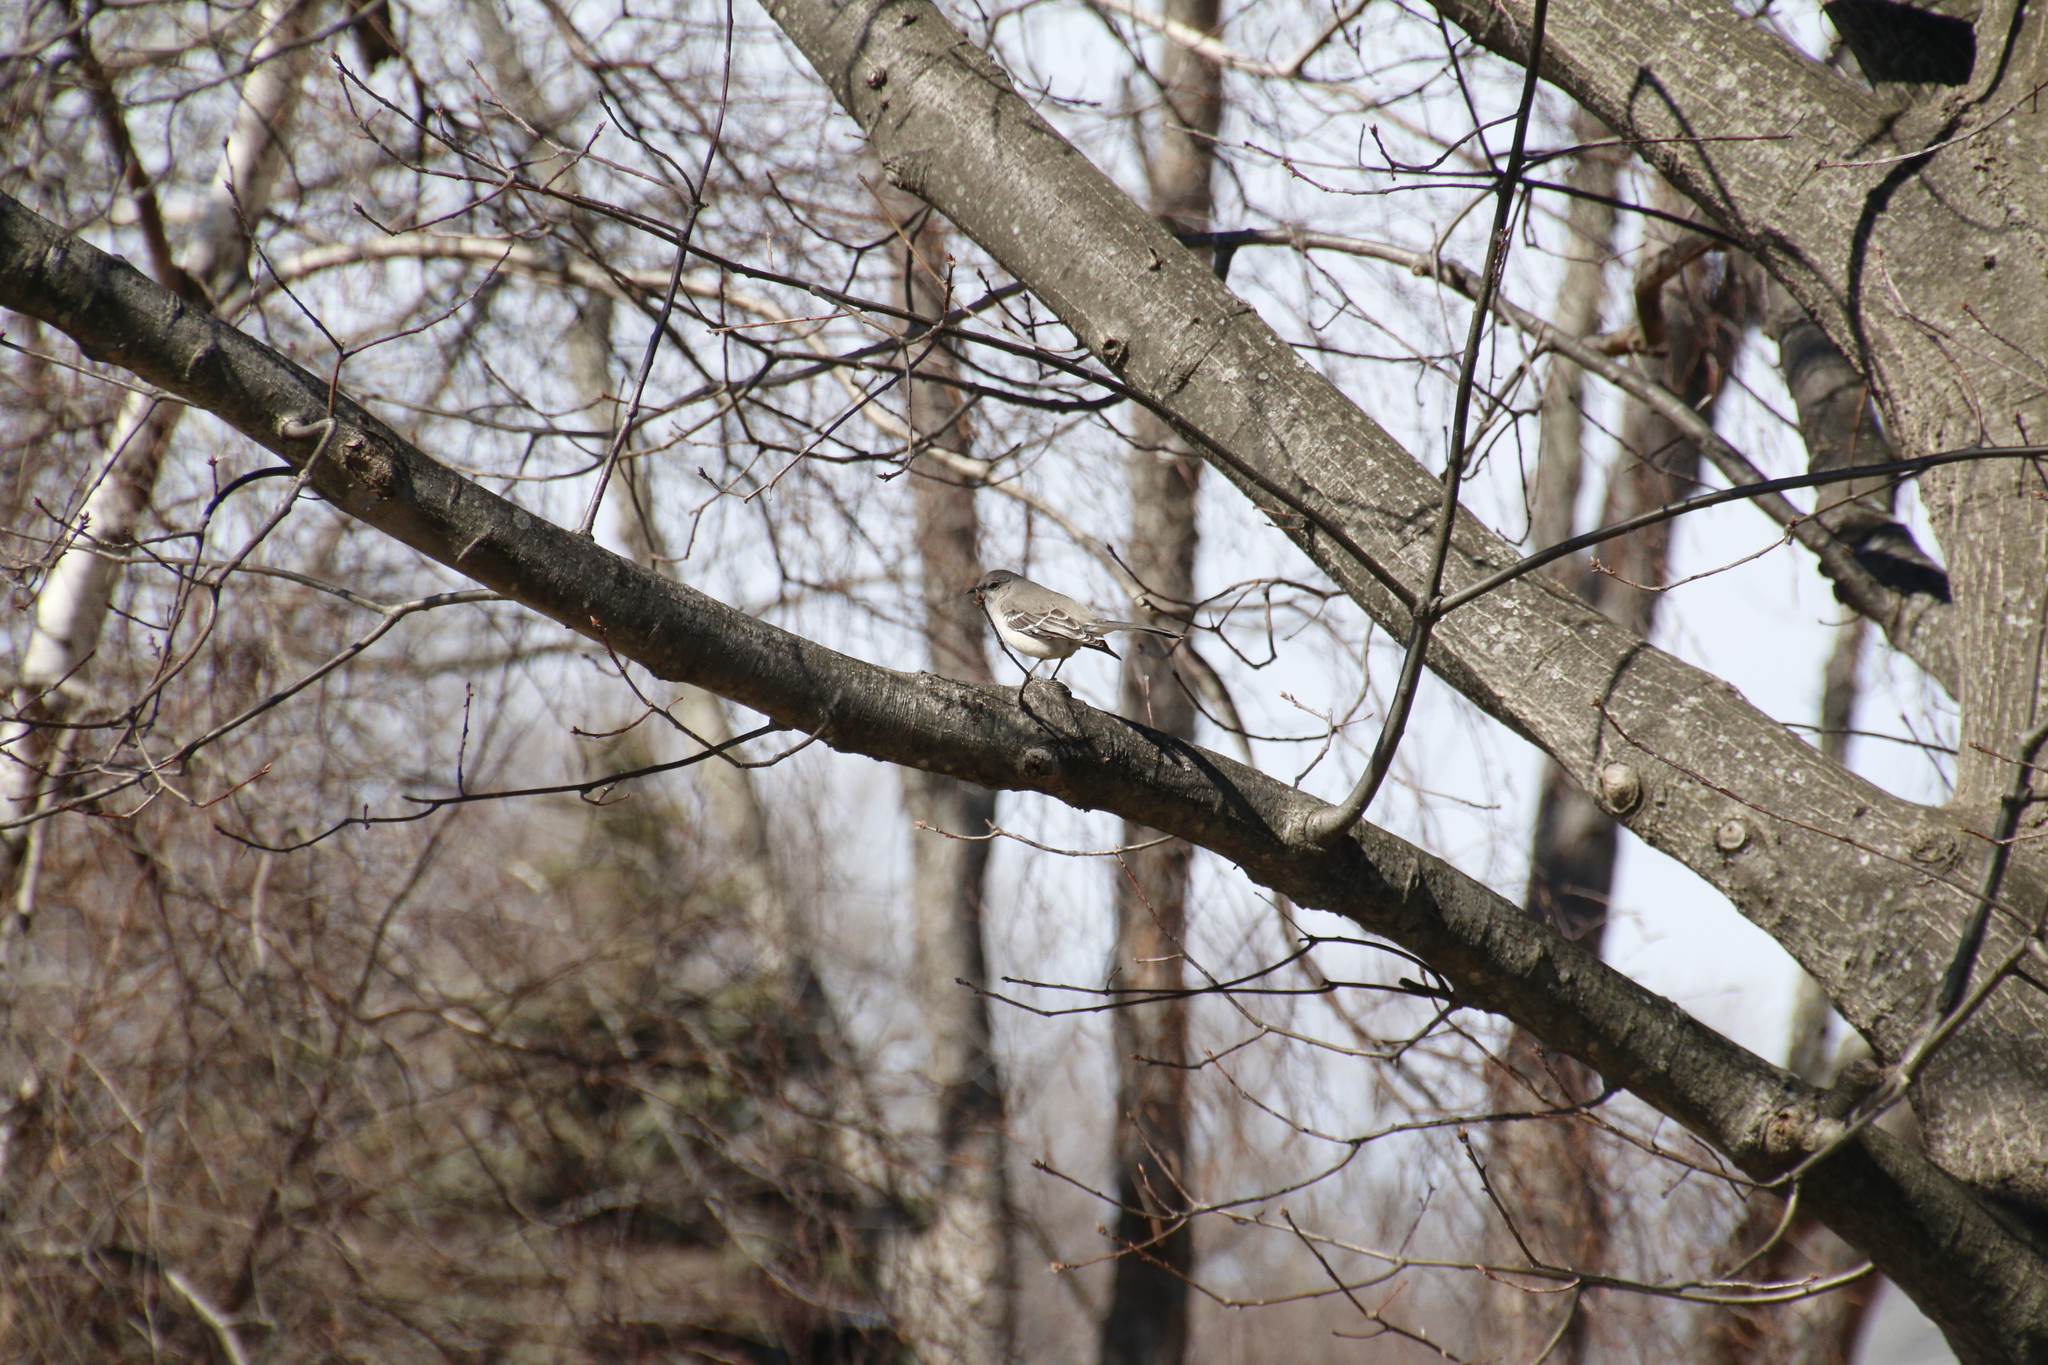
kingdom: Animalia
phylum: Chordata
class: Aves
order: Passeriformes
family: Mimidae
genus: Mimus
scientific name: Mimus polyglottos
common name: Northern mockingbird
